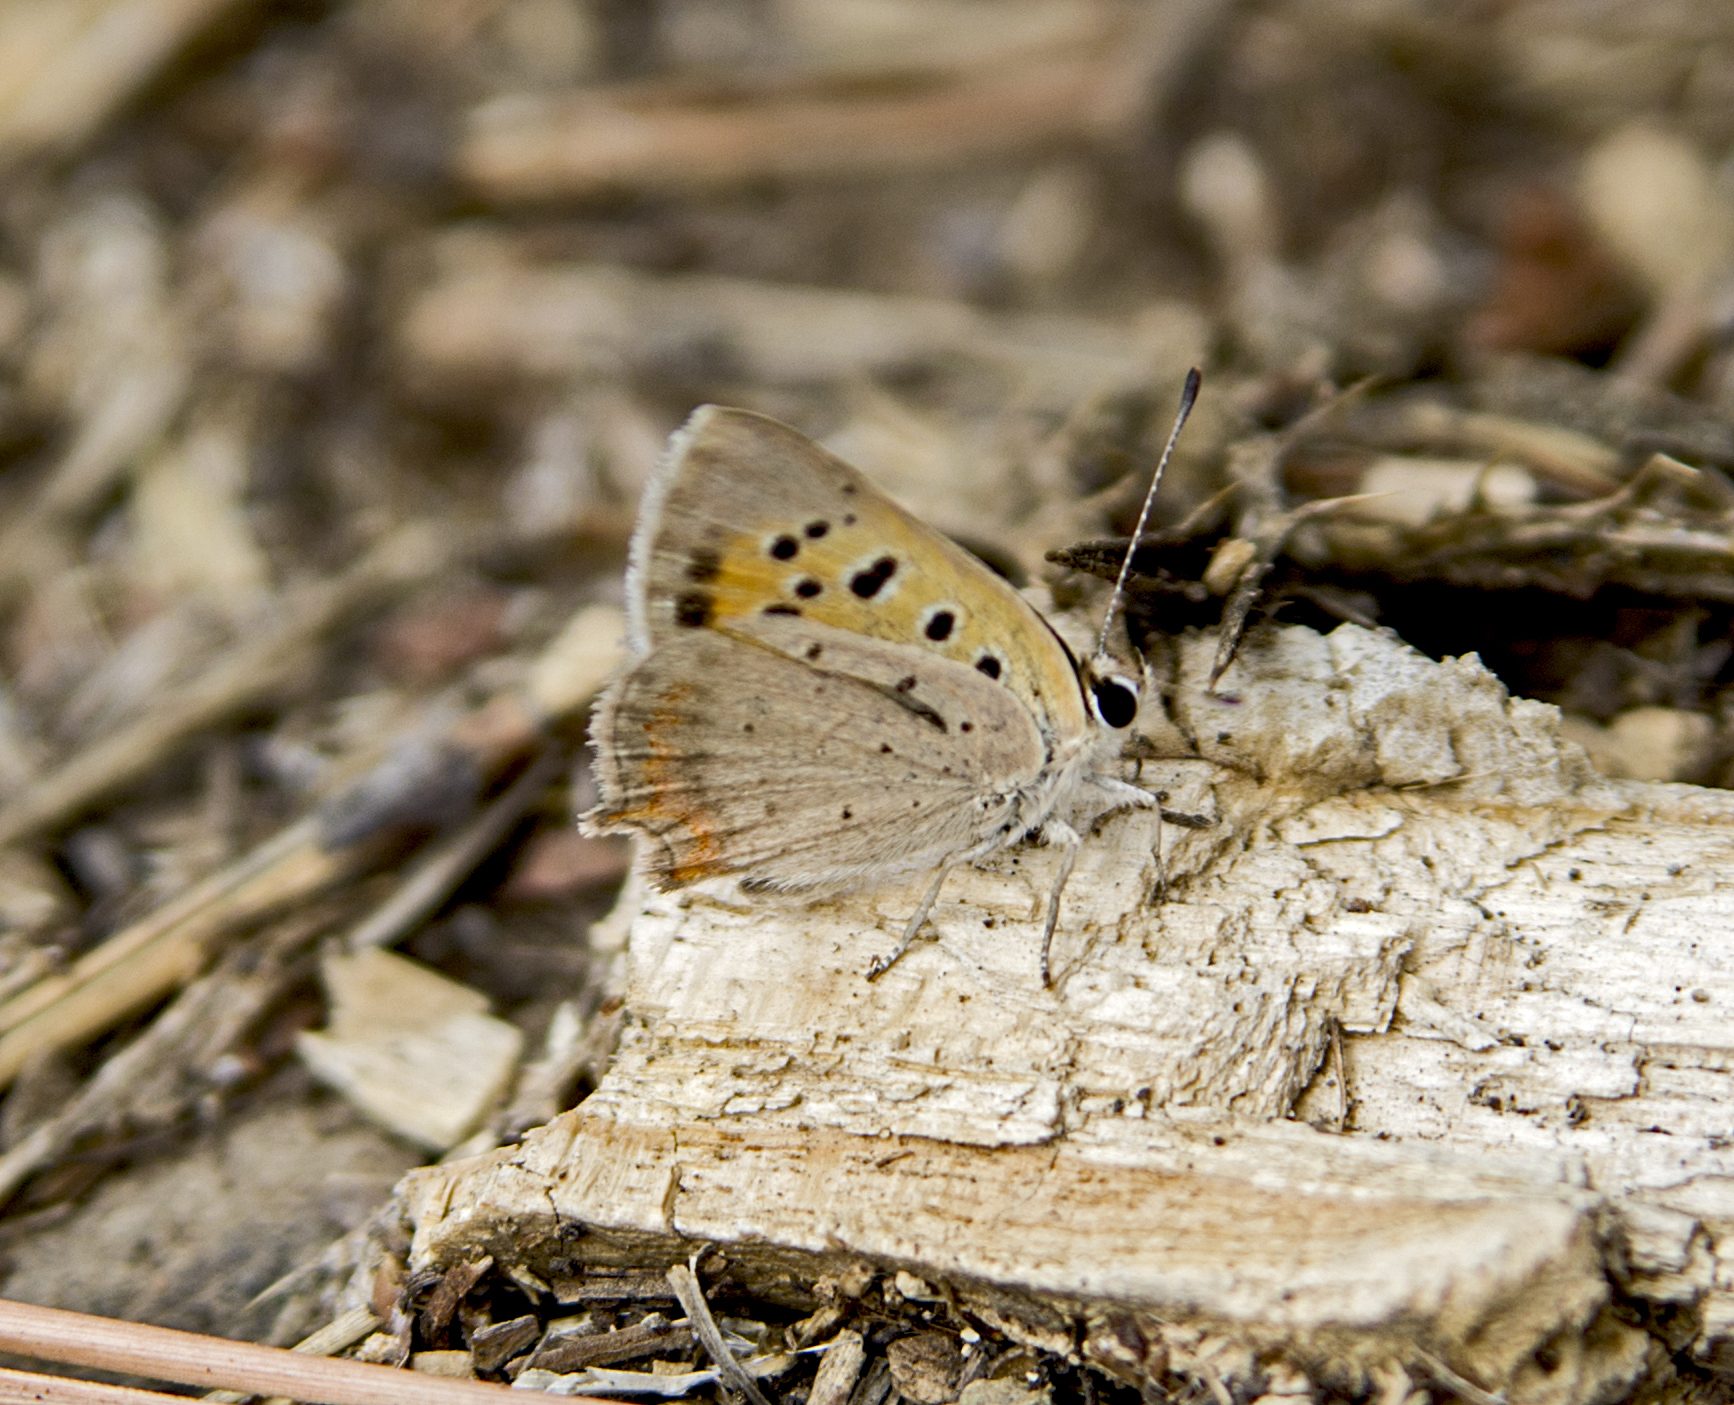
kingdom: Animalia
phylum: Arthropoda
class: Insecta
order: Lepidoptera
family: Lycaenidae
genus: Lycaena
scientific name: Lycaena phlaeas
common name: Small copper
